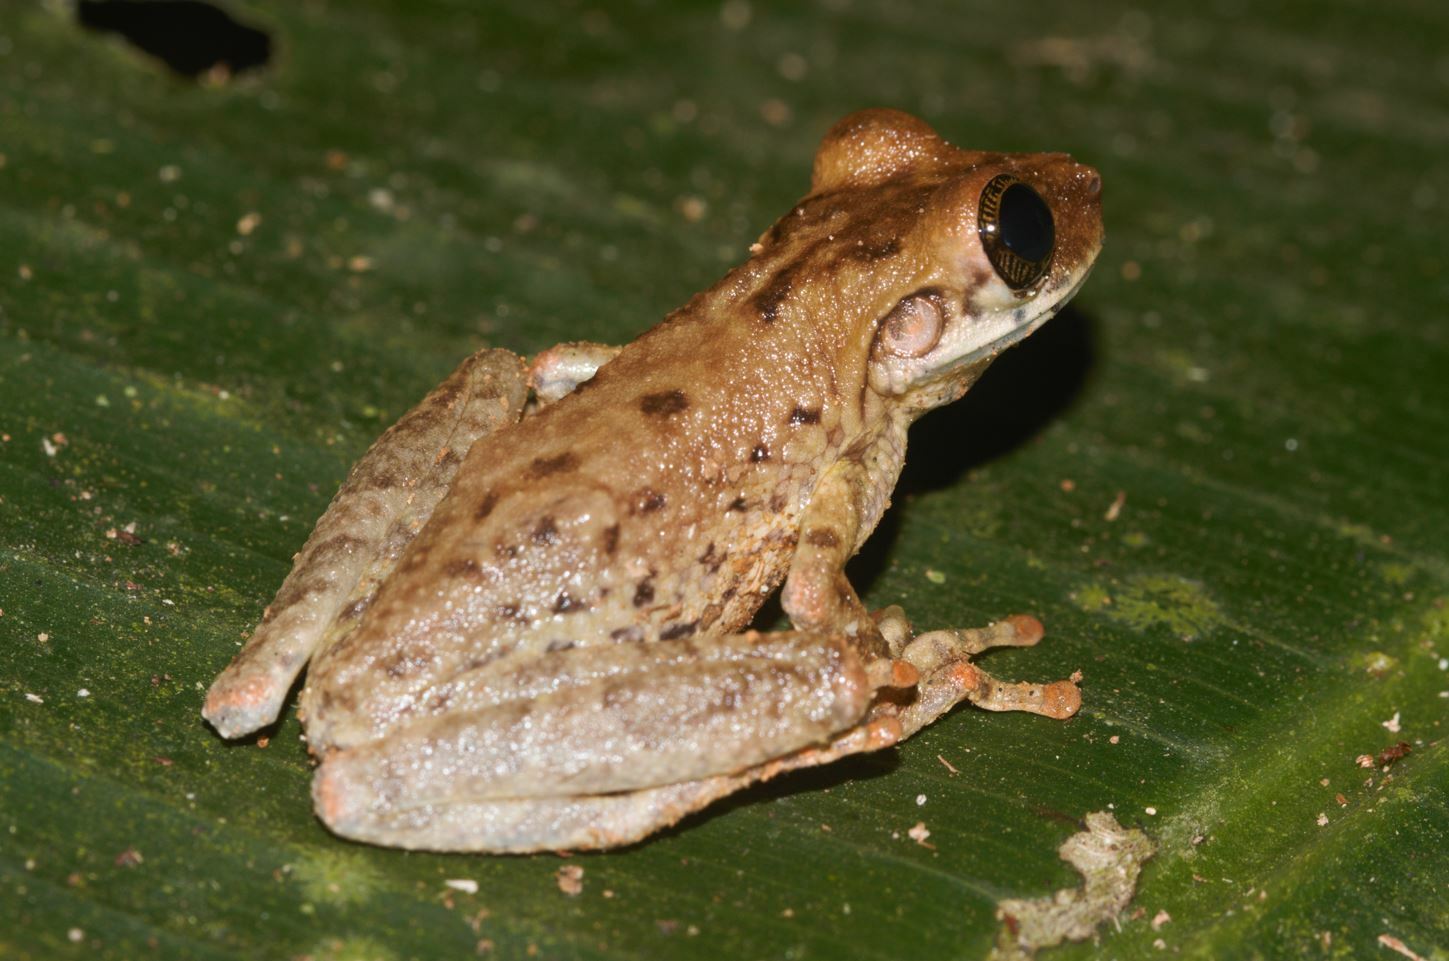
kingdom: Animalia
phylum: Chordata
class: Amphibia
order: Anura
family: Hylidae
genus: Osteocephalus
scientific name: Osteocephalus taurinus
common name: Manaus slender-legged treefrog
